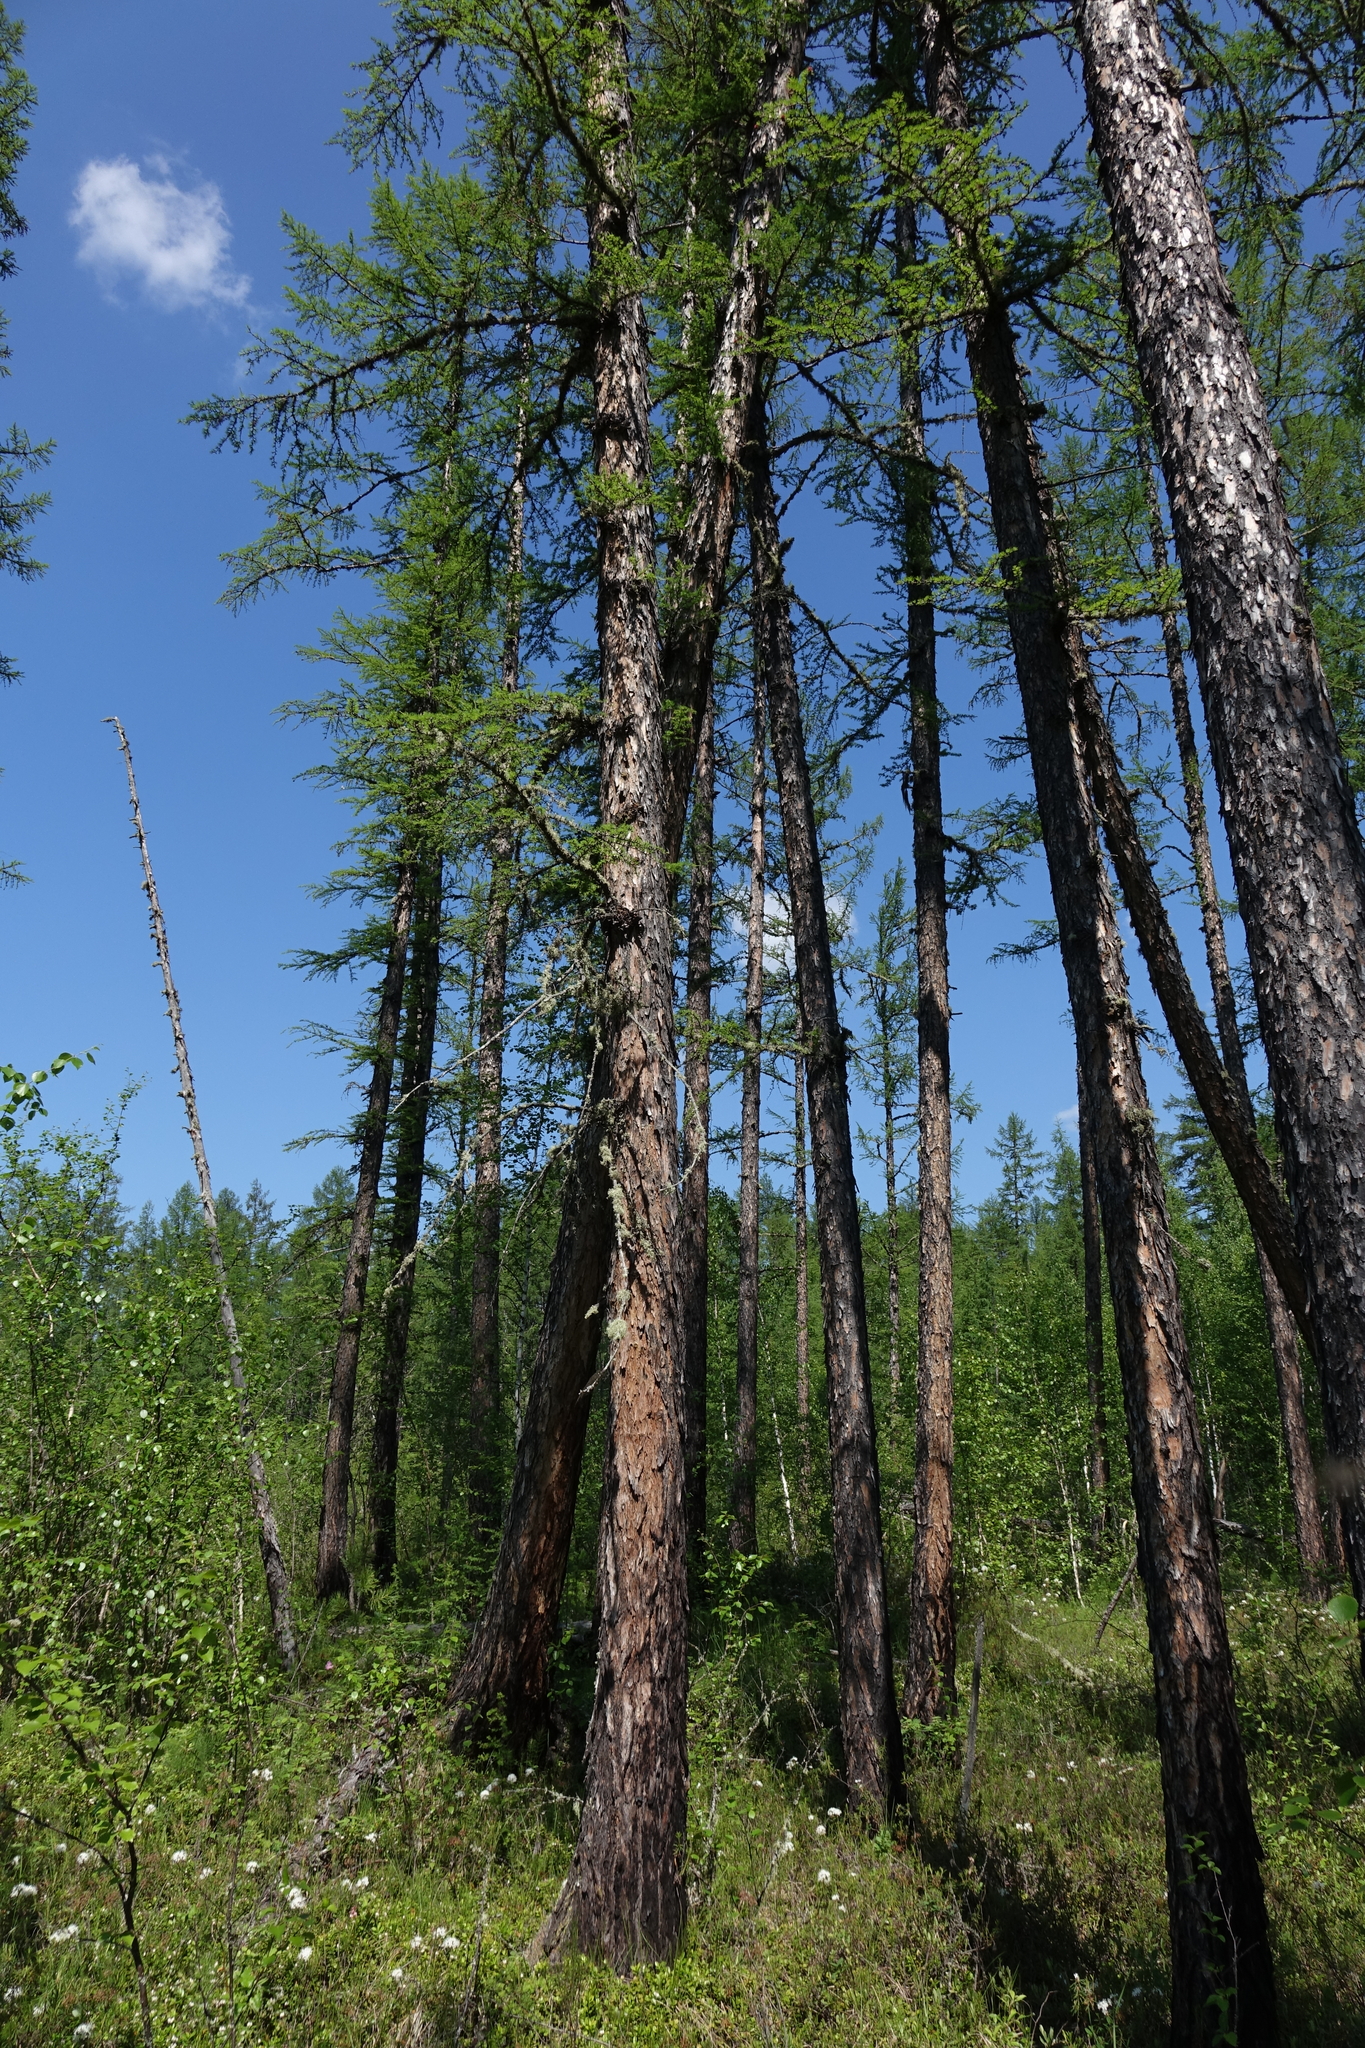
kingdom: Plantae
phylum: Tracheophyta
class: Pinopsida
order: Pinales
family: Pinaceae
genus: Larix
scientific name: Larix gmelinii
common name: Dahurian larch
